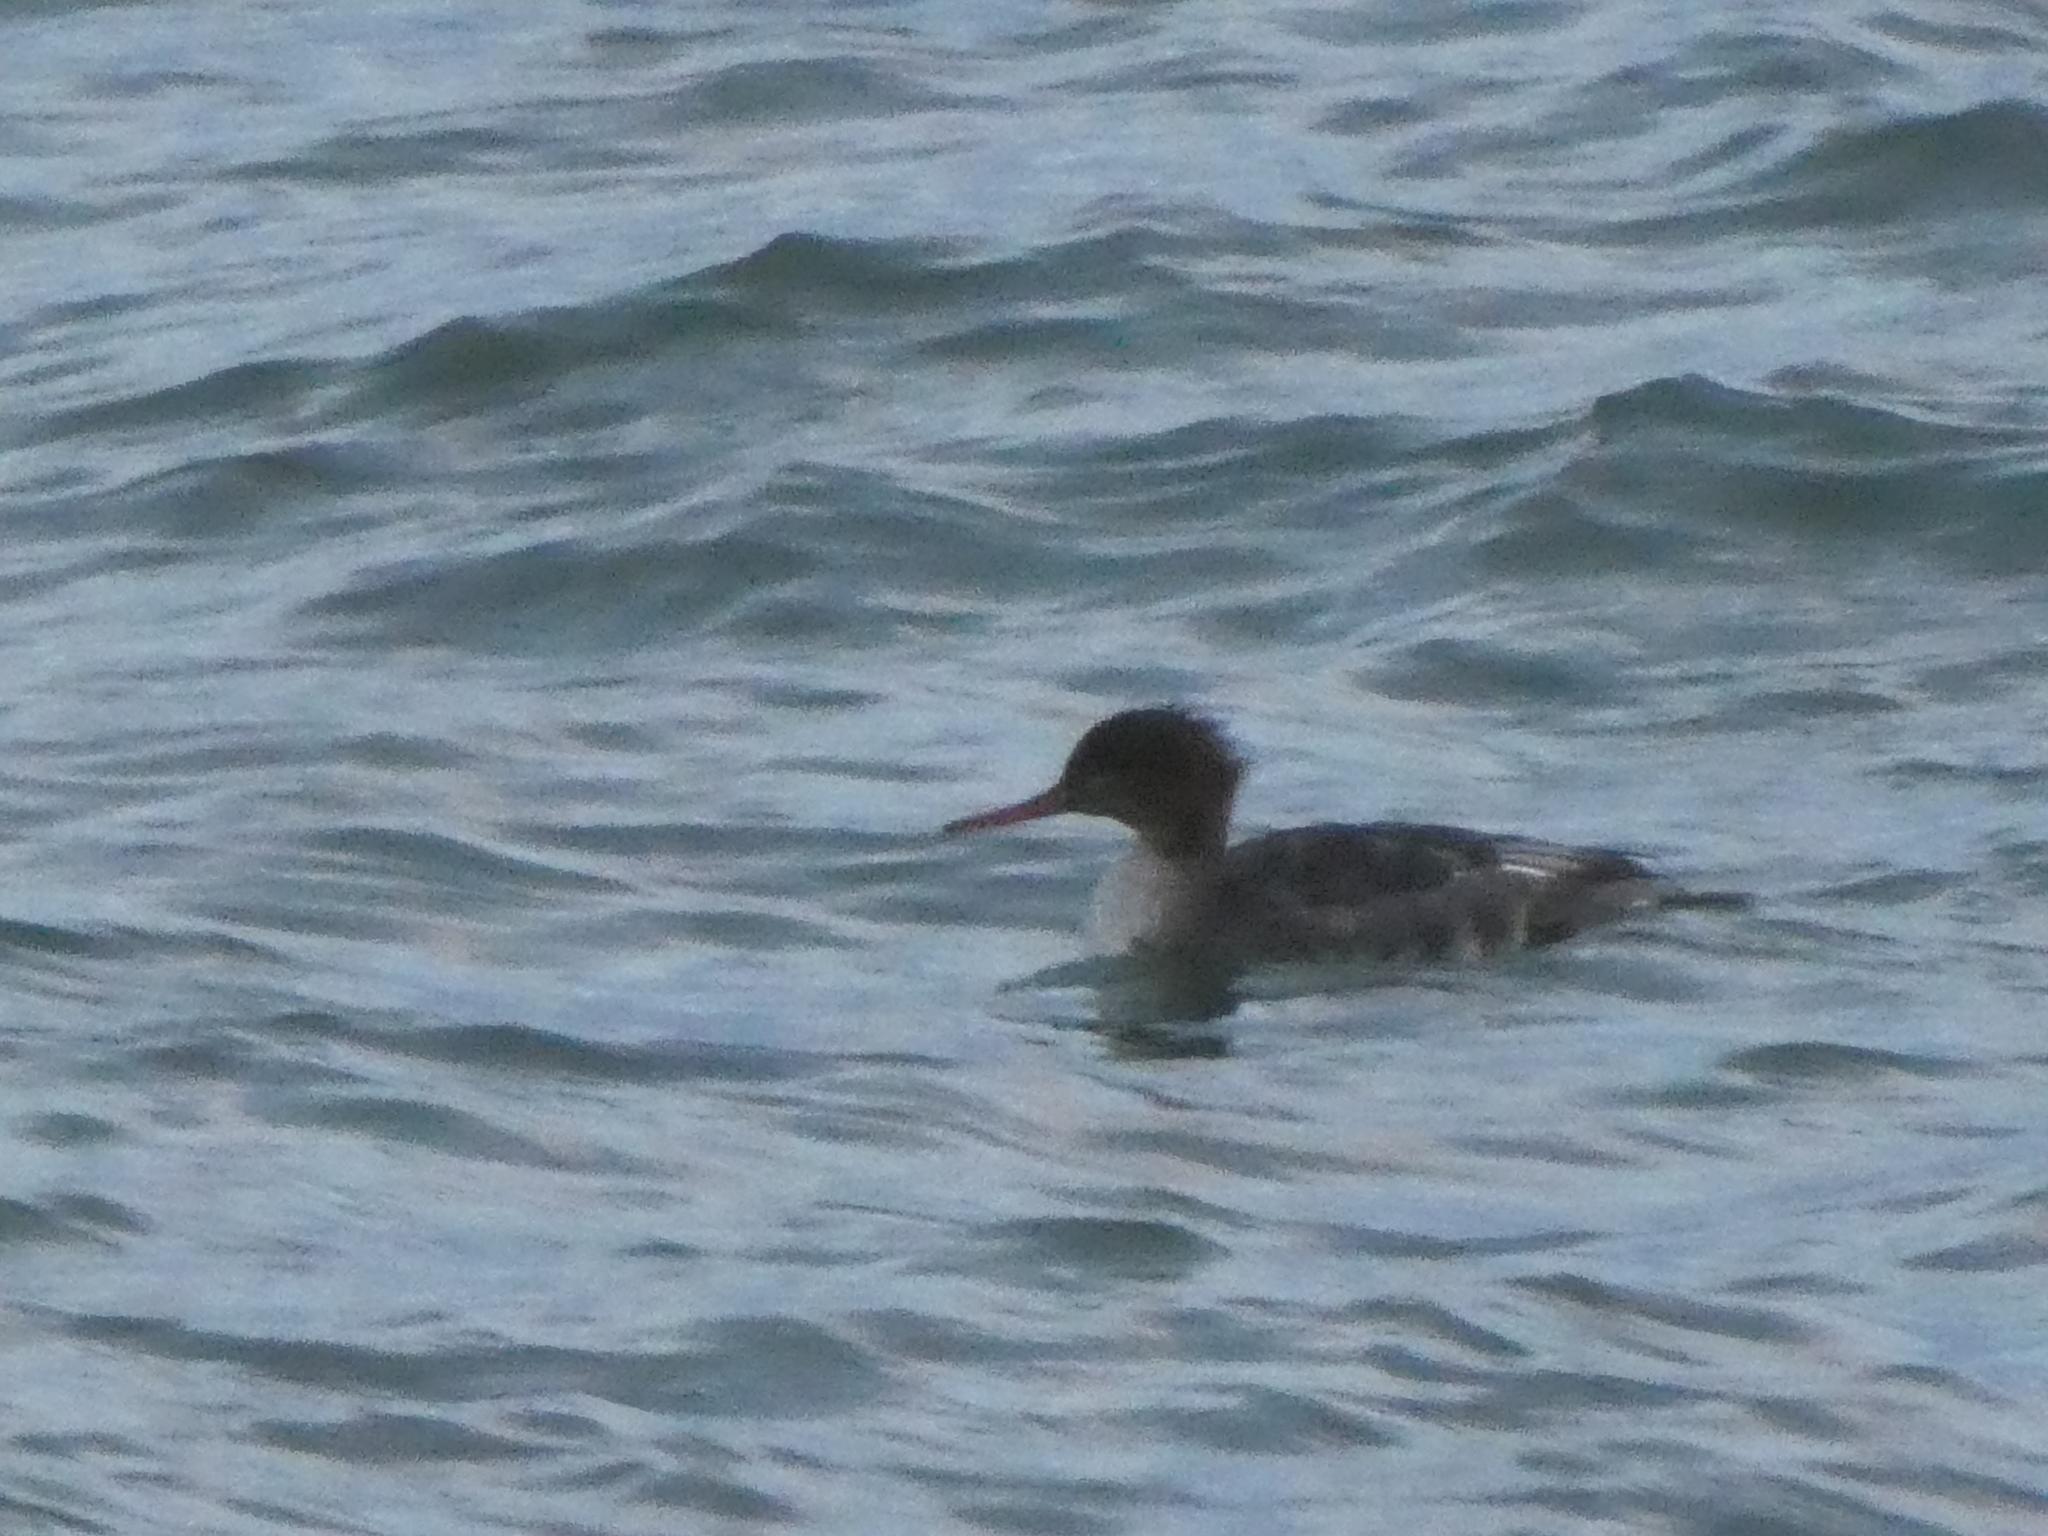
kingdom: Animalia
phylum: Chordata
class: Aves
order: Anseriformes
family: Anatidae
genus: Mergus
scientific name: Mergus serrator
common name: Red-breasted merganser
